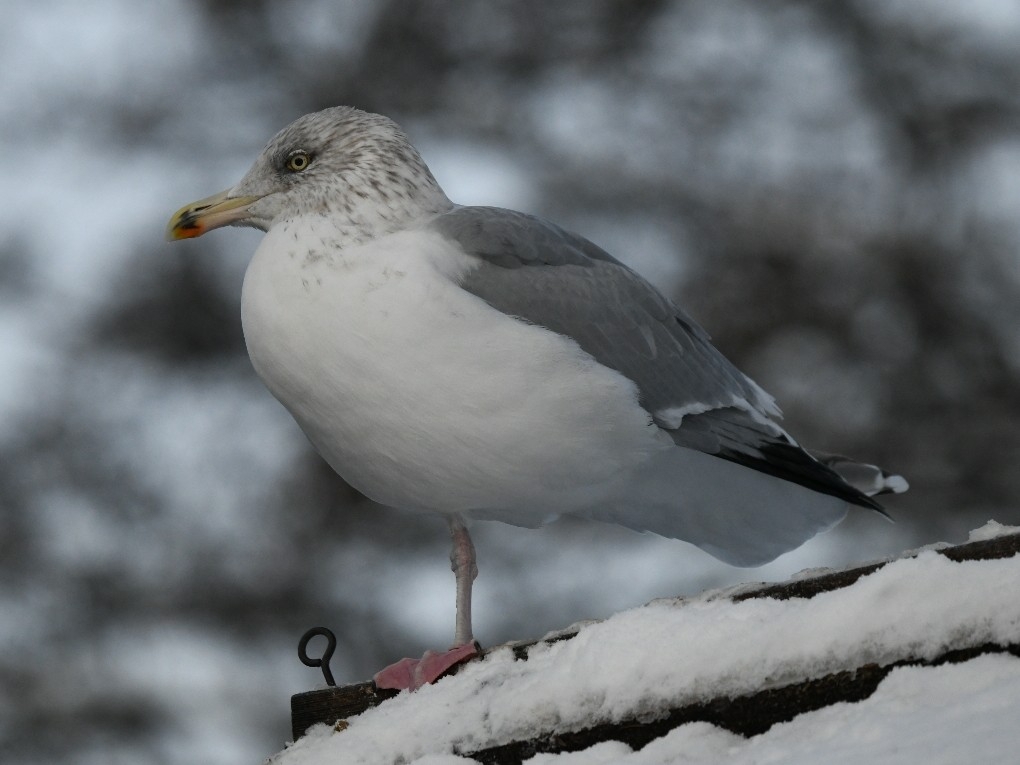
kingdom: Animalia
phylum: Chordata
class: Aves
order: Charadriiformes
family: Laridae
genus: Larus
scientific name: Larus argentatus
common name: Herring gull
